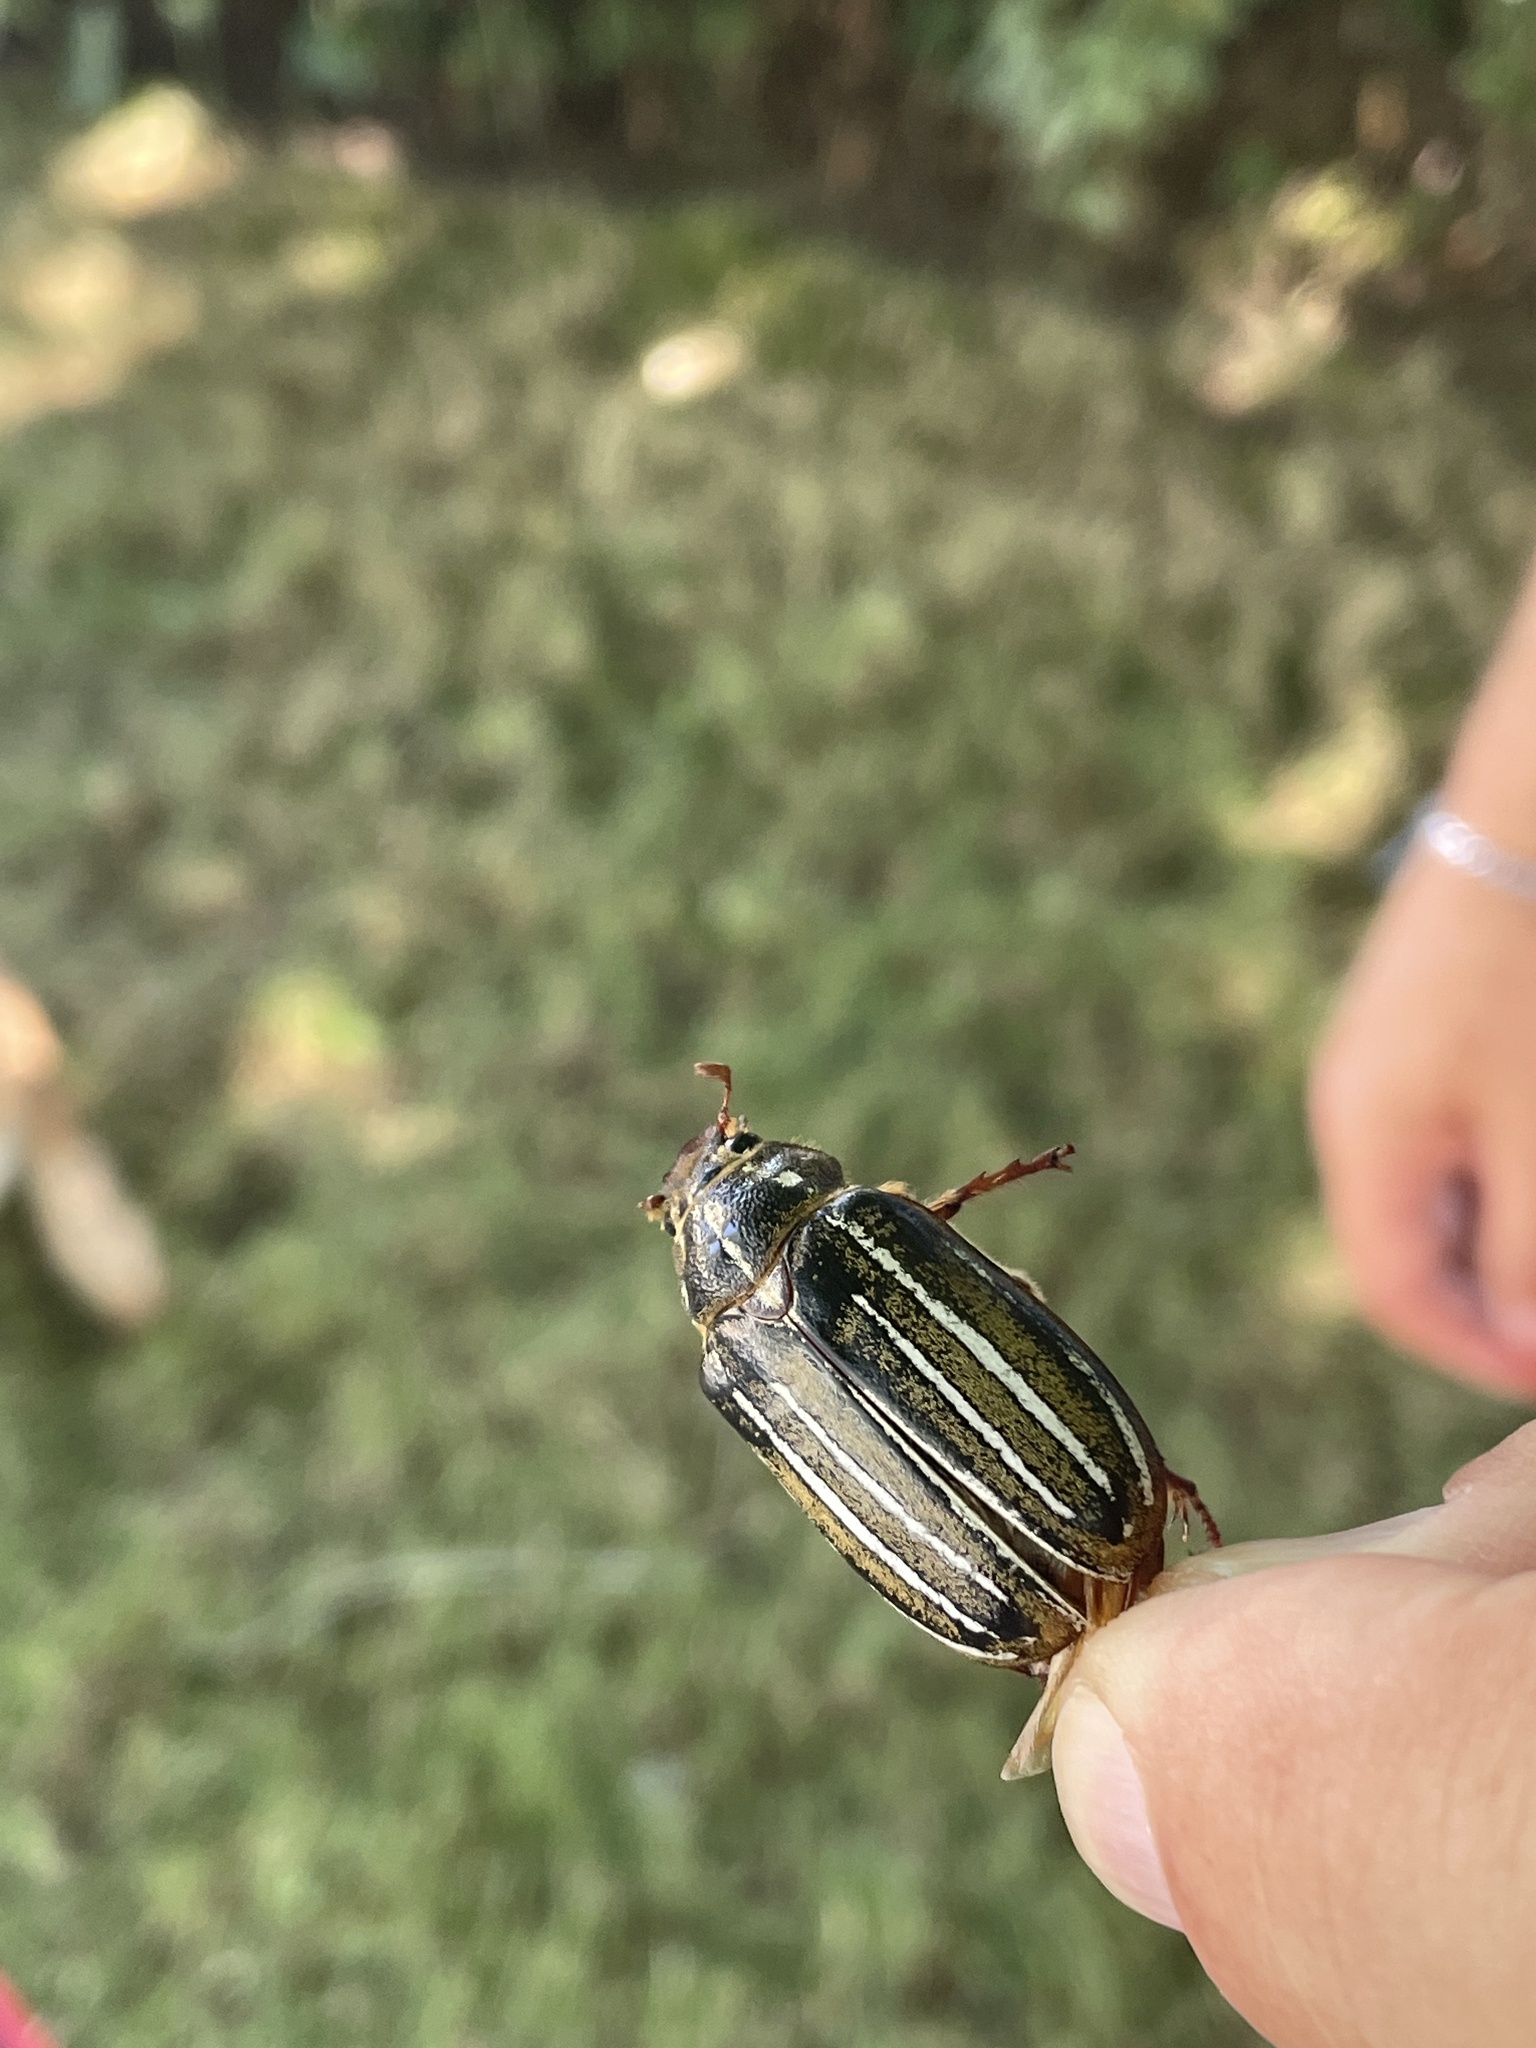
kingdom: Animalia
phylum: Arthropoda
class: Insecta
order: Coleoptera
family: Scarabaeidae
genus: Polyphylla
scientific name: Polyphylla crinita
